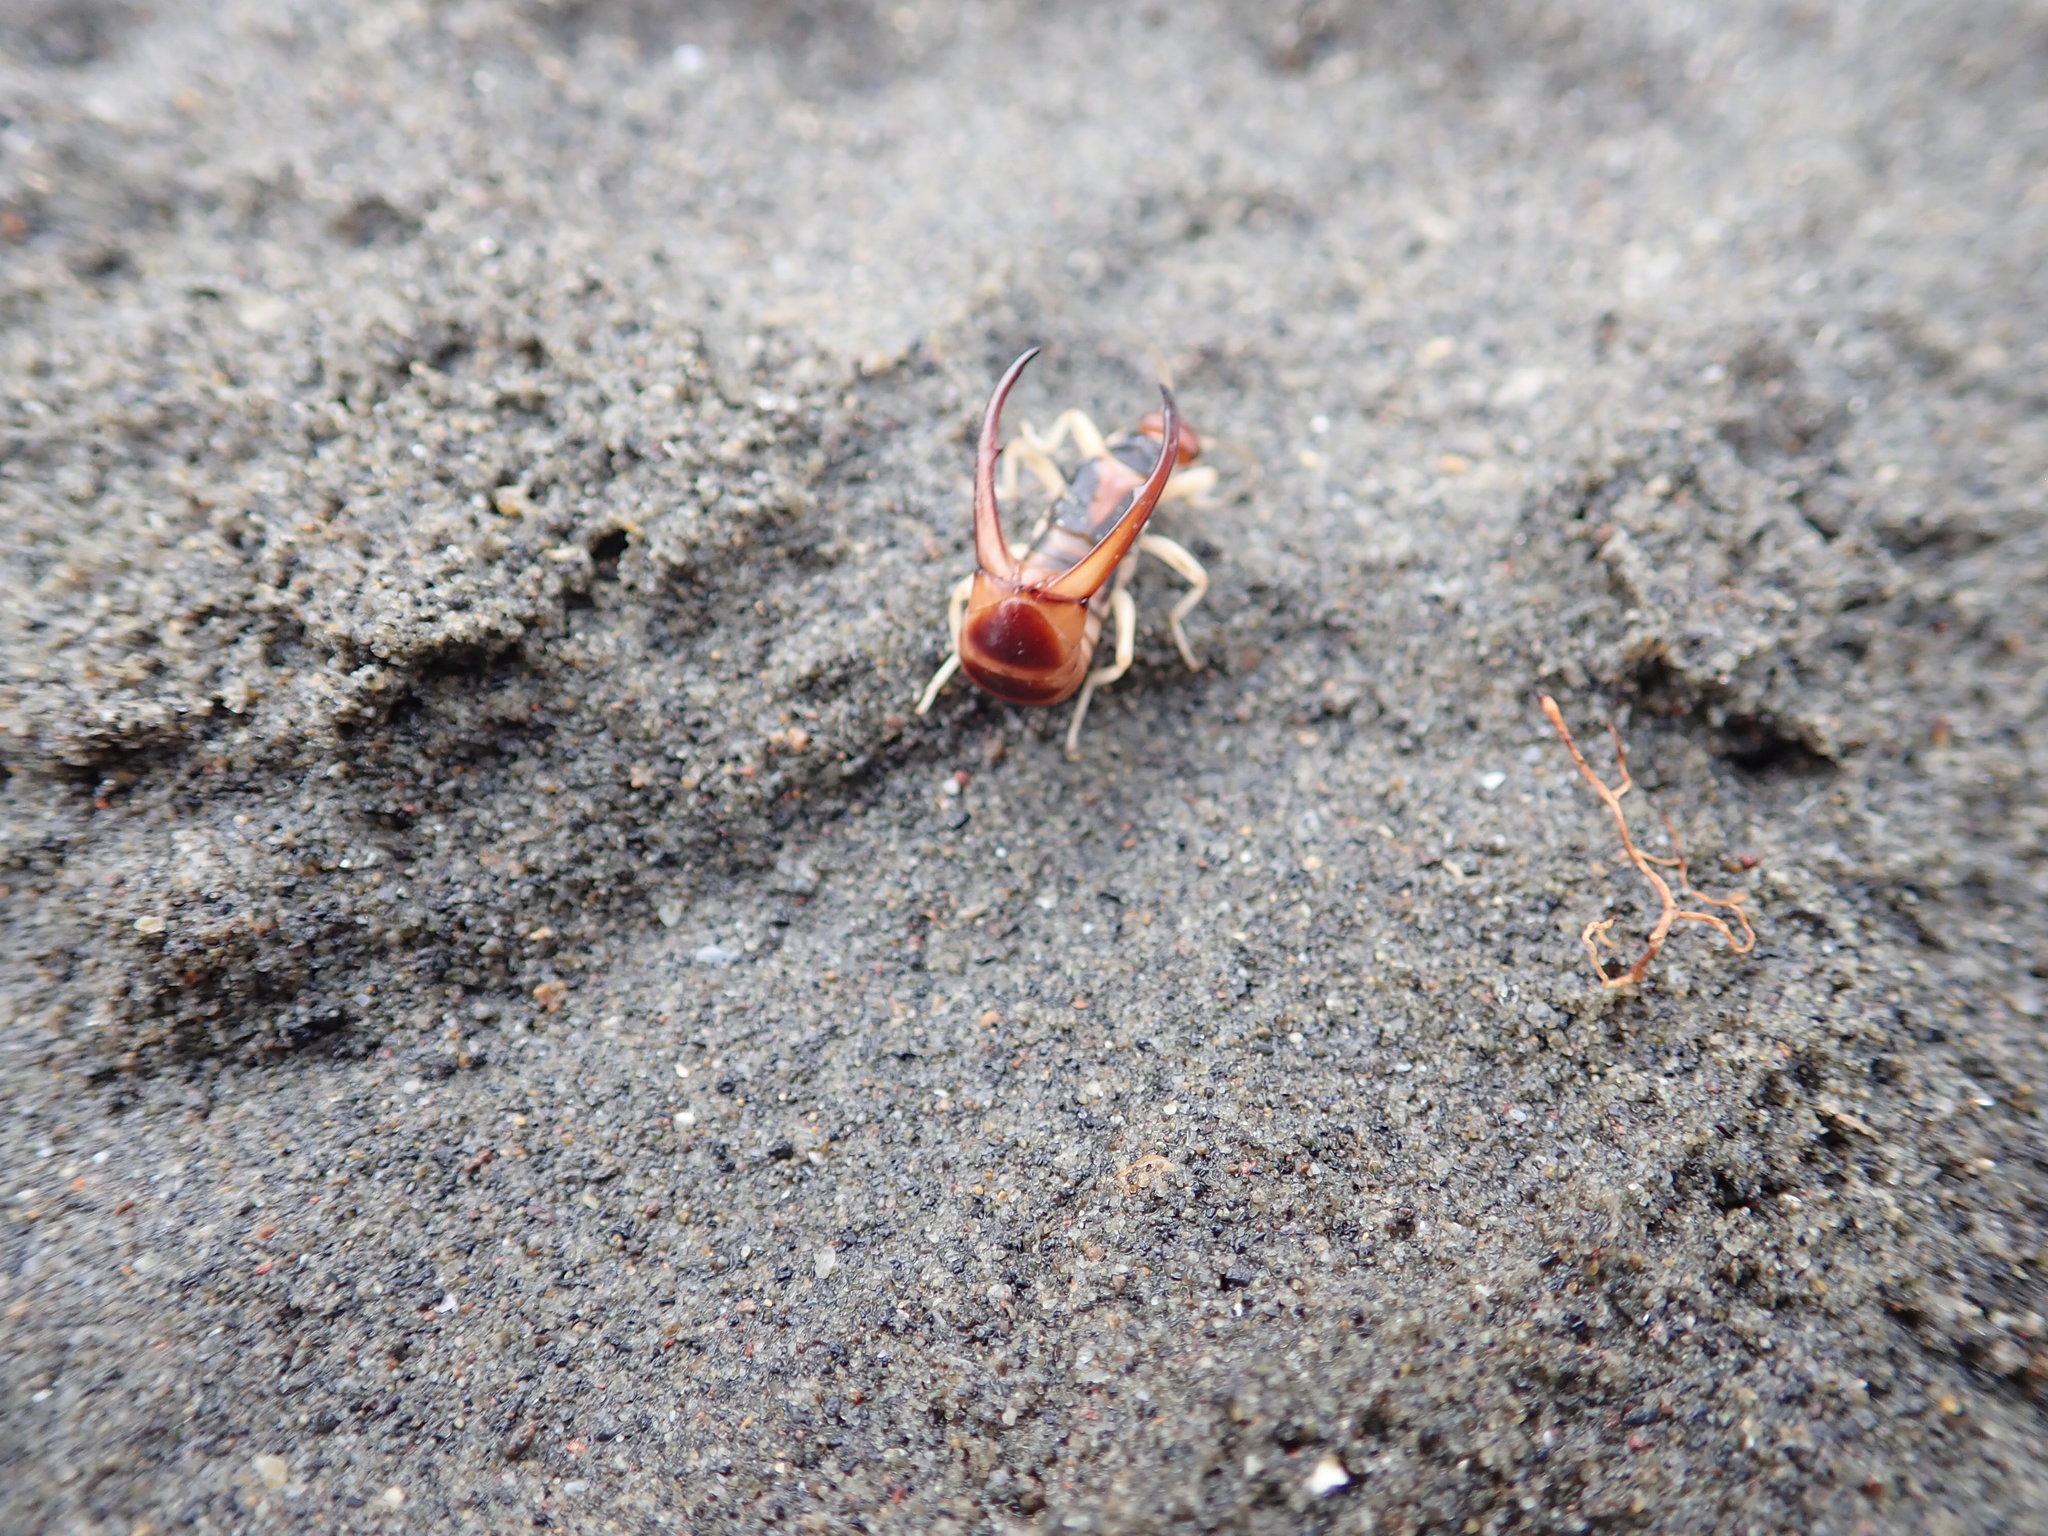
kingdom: Animalia
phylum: Arthropoda
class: Insecta
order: Dermaptera
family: Labiduridae
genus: Labidura
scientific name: Labidura riparia
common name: Striped earwig
